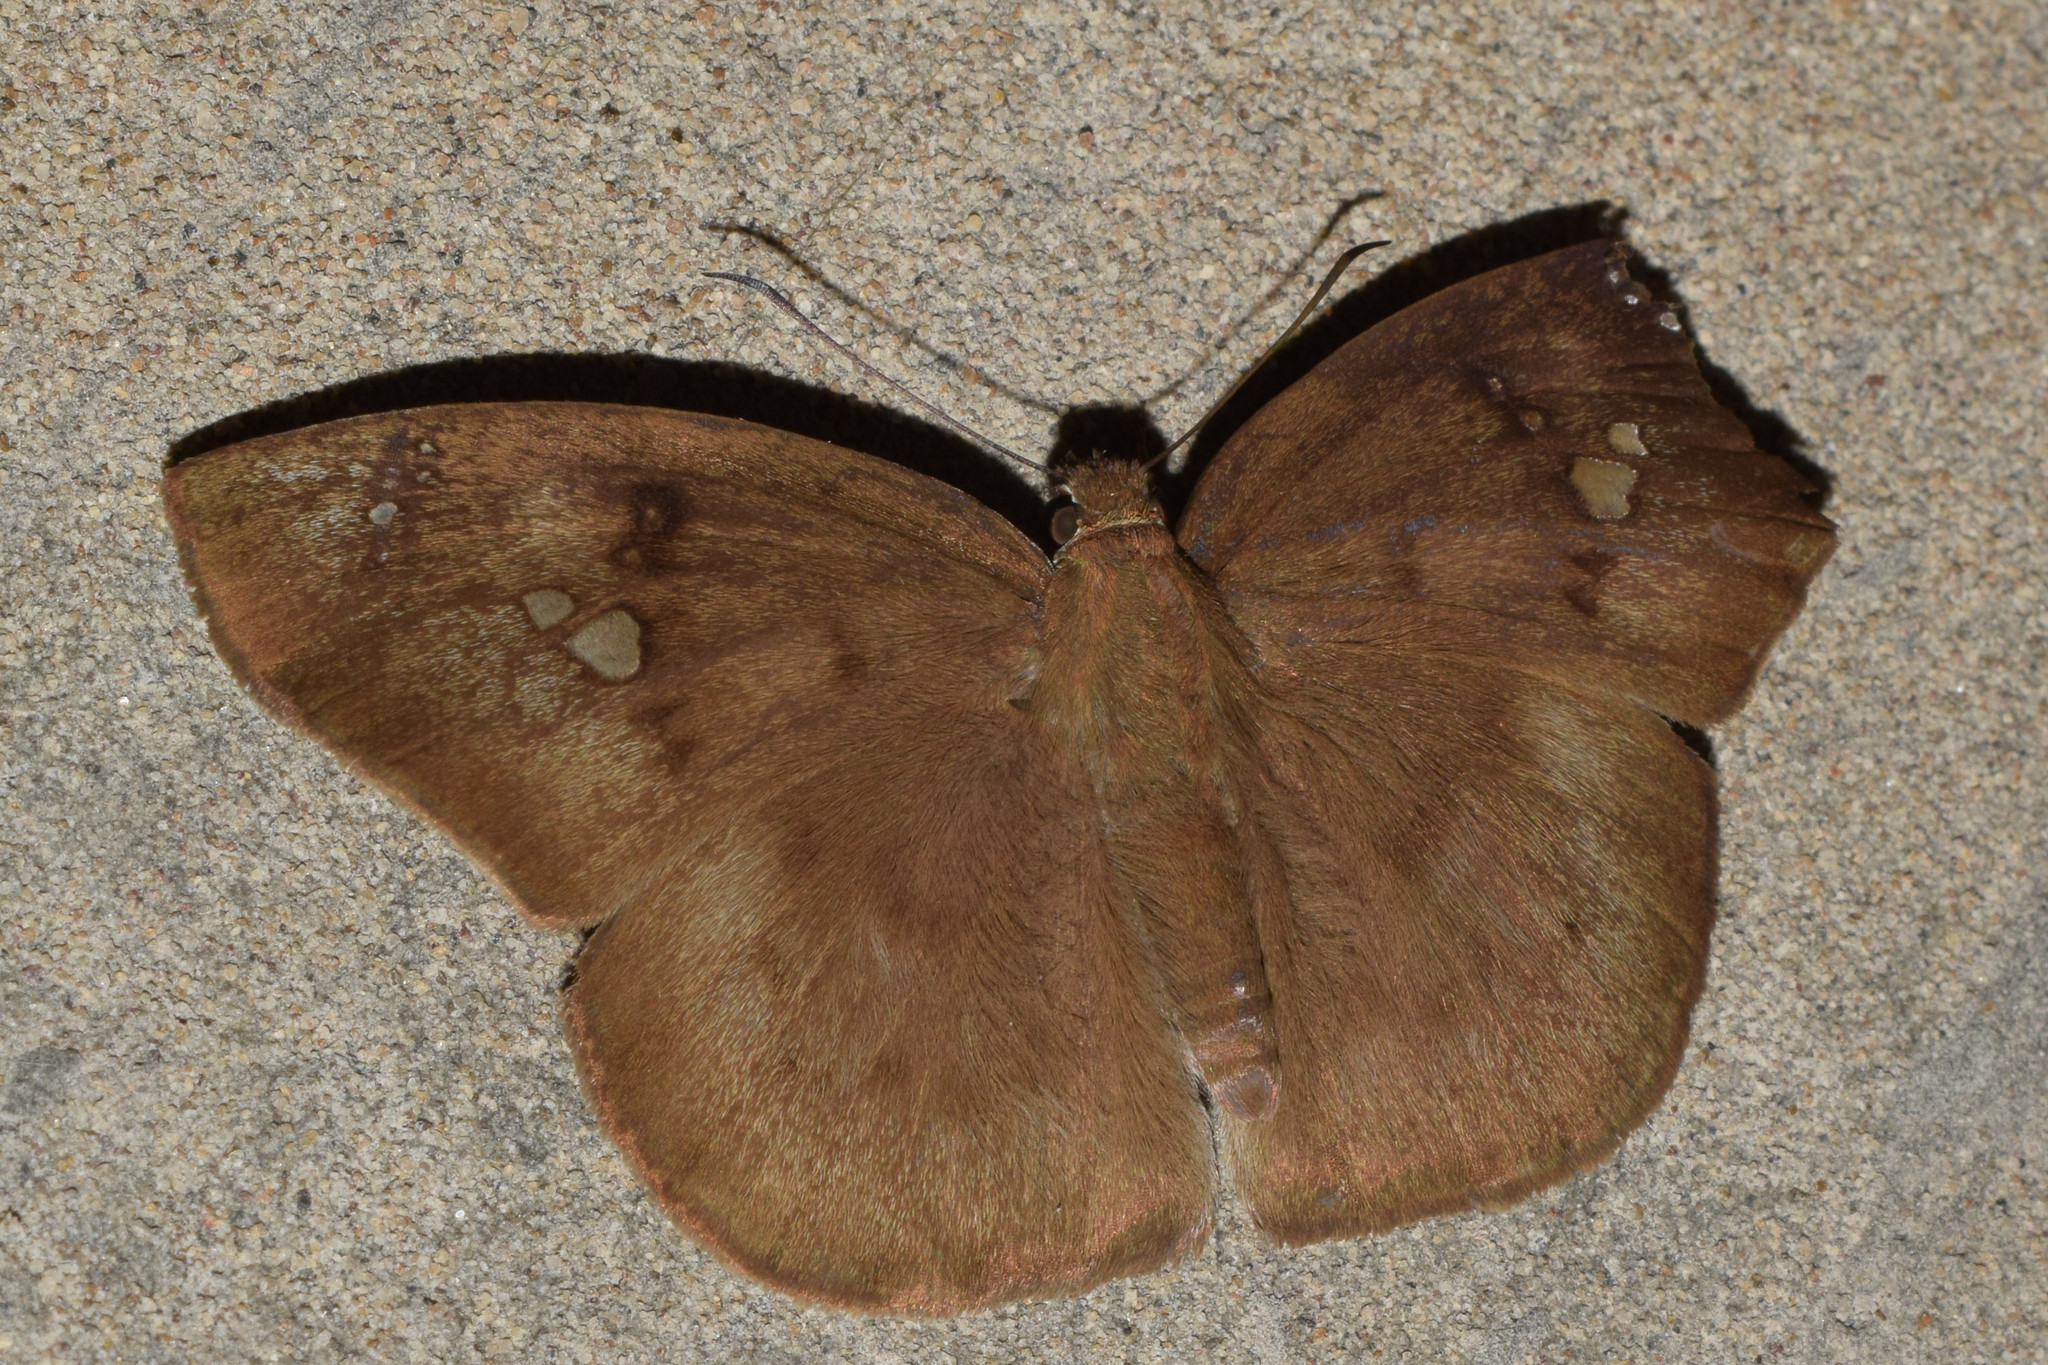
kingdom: Animalia
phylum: Arthropoda
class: Insecta
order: Lepidoptera
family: Hesperiidae
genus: Tagiades
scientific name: Tagiades japetus
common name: Pied flat
